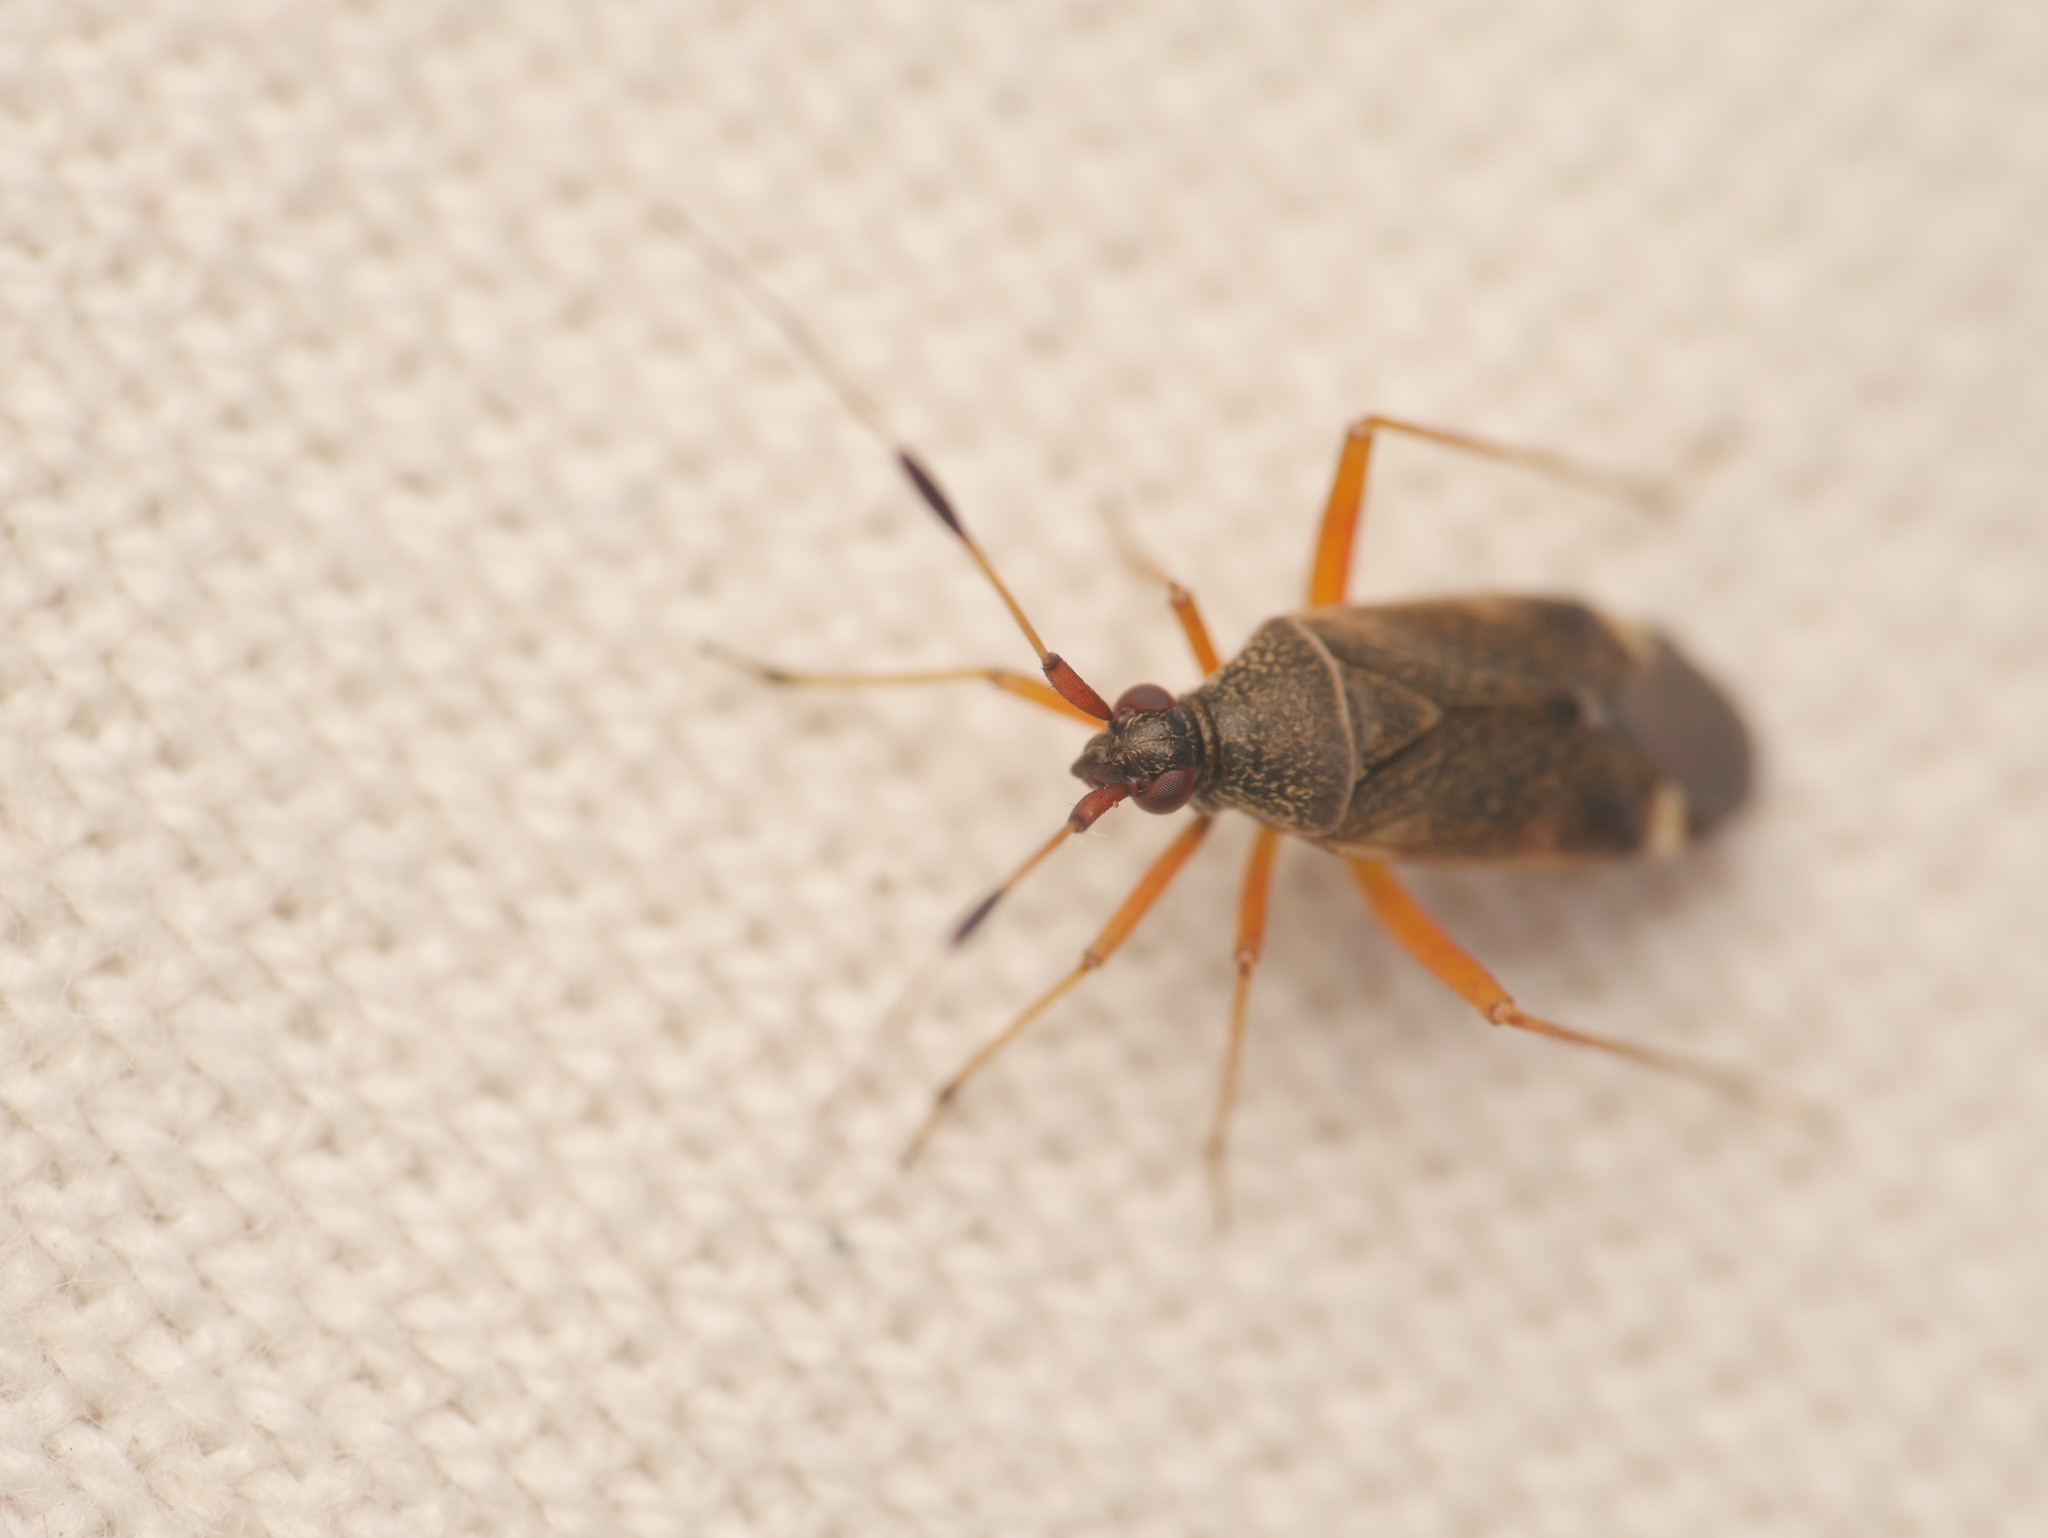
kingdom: Animalia
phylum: Arthropoda
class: Insecta
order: Hemiptera
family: Miridae
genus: Closterotomus
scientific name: Closterotomus biclavatus
